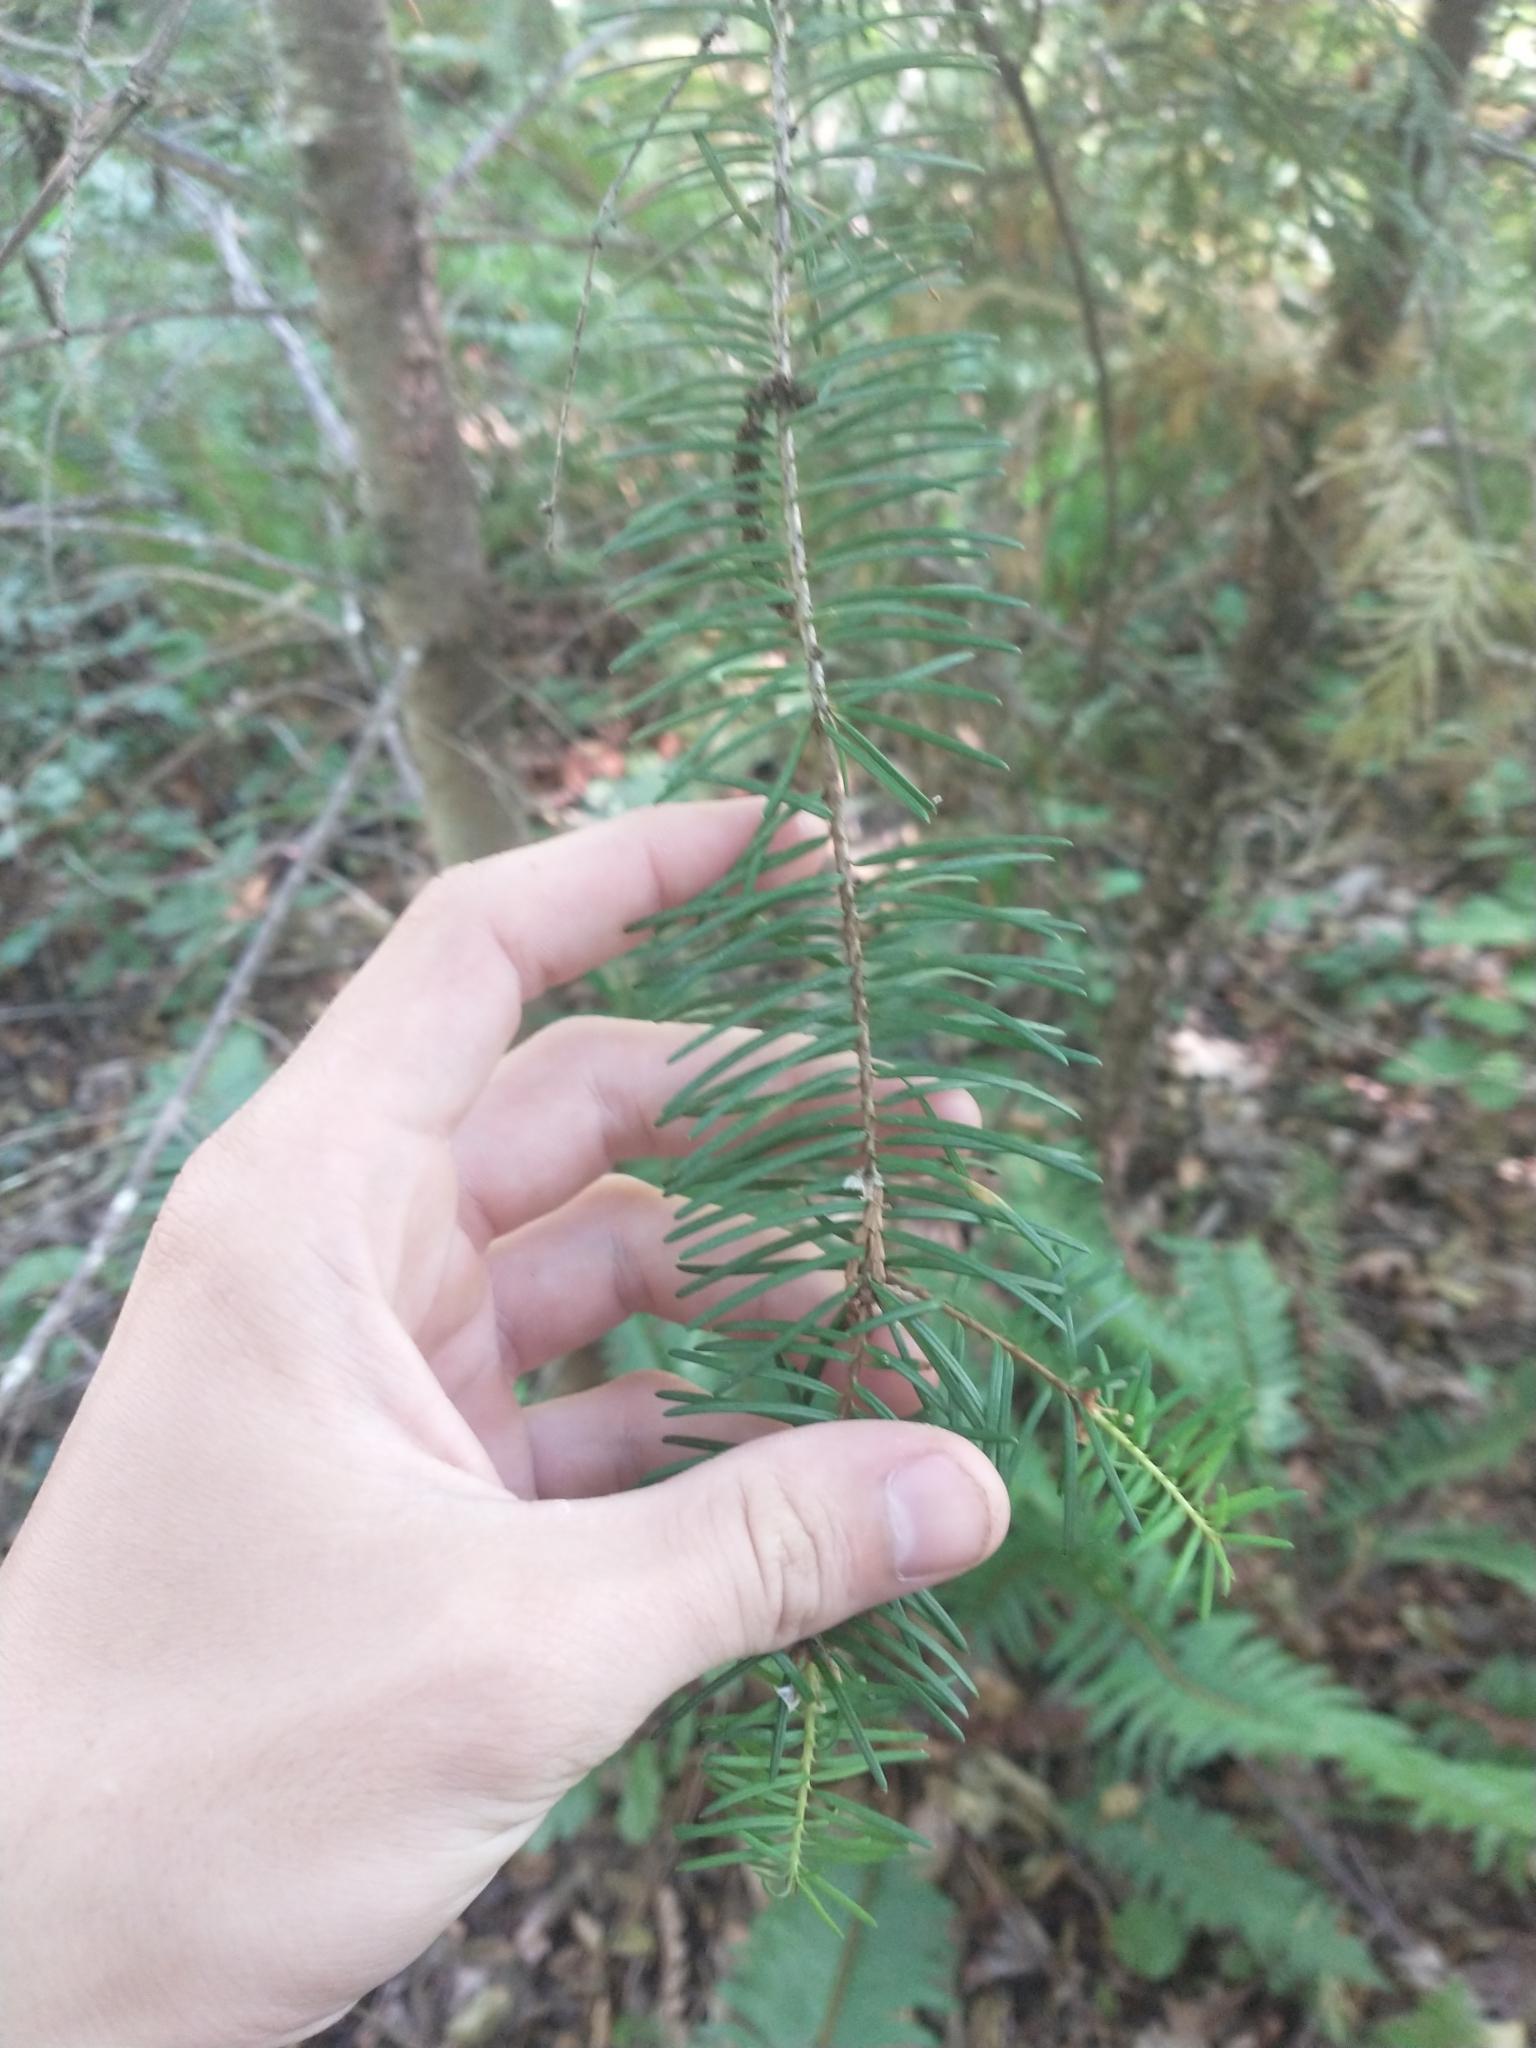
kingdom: Plantae
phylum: Tracheophyta
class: Pinopsida
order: Pinales
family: Pinaceae
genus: Pseudotsuga
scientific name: Pseudotsuga menziesii
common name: Douglas fir
